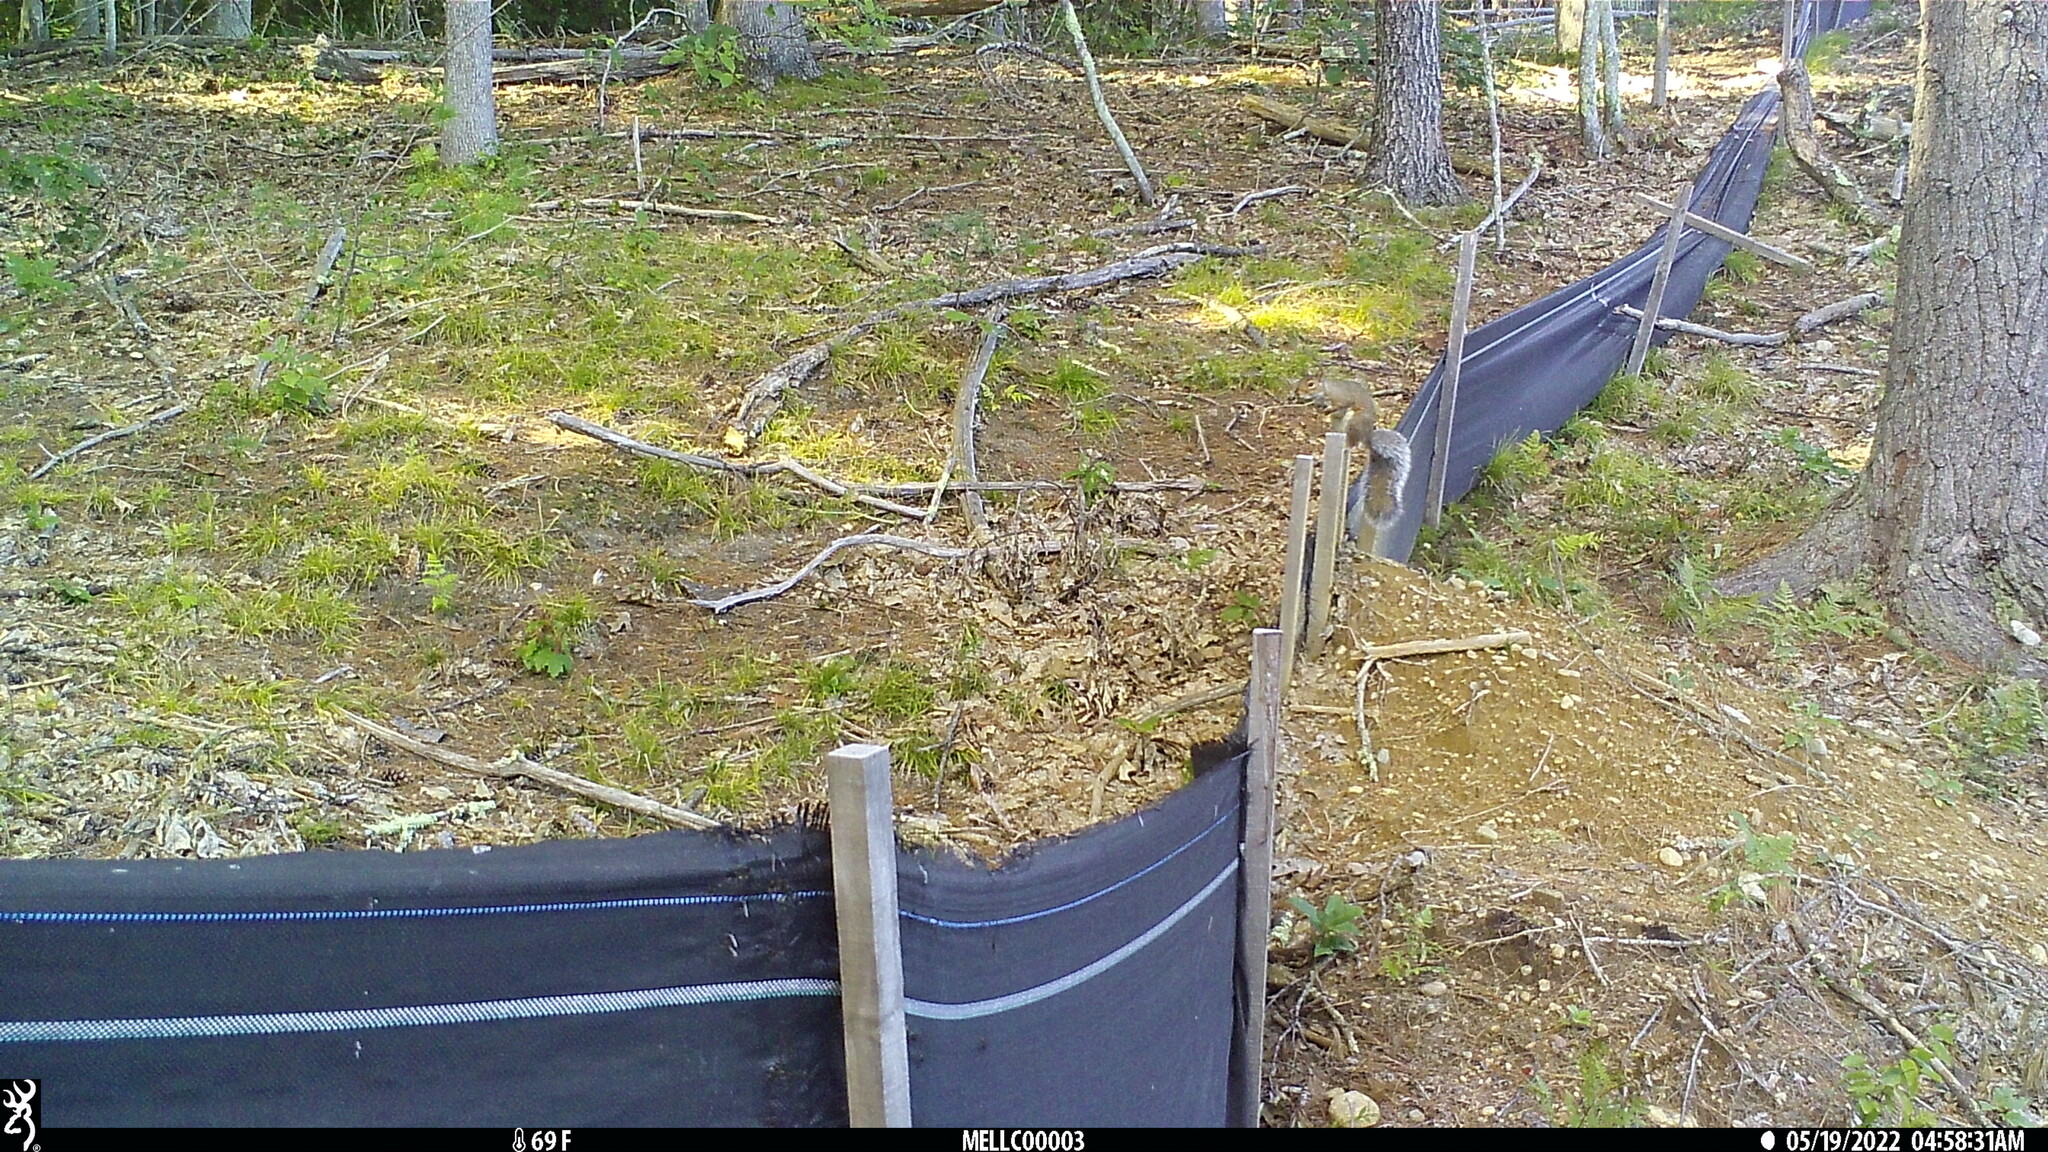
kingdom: Animalia
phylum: Chordata
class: Mammalia
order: Rodentia
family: Sciuridae
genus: Sciurus
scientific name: Sciurus carolinensis
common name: Eastern gray squirrel
